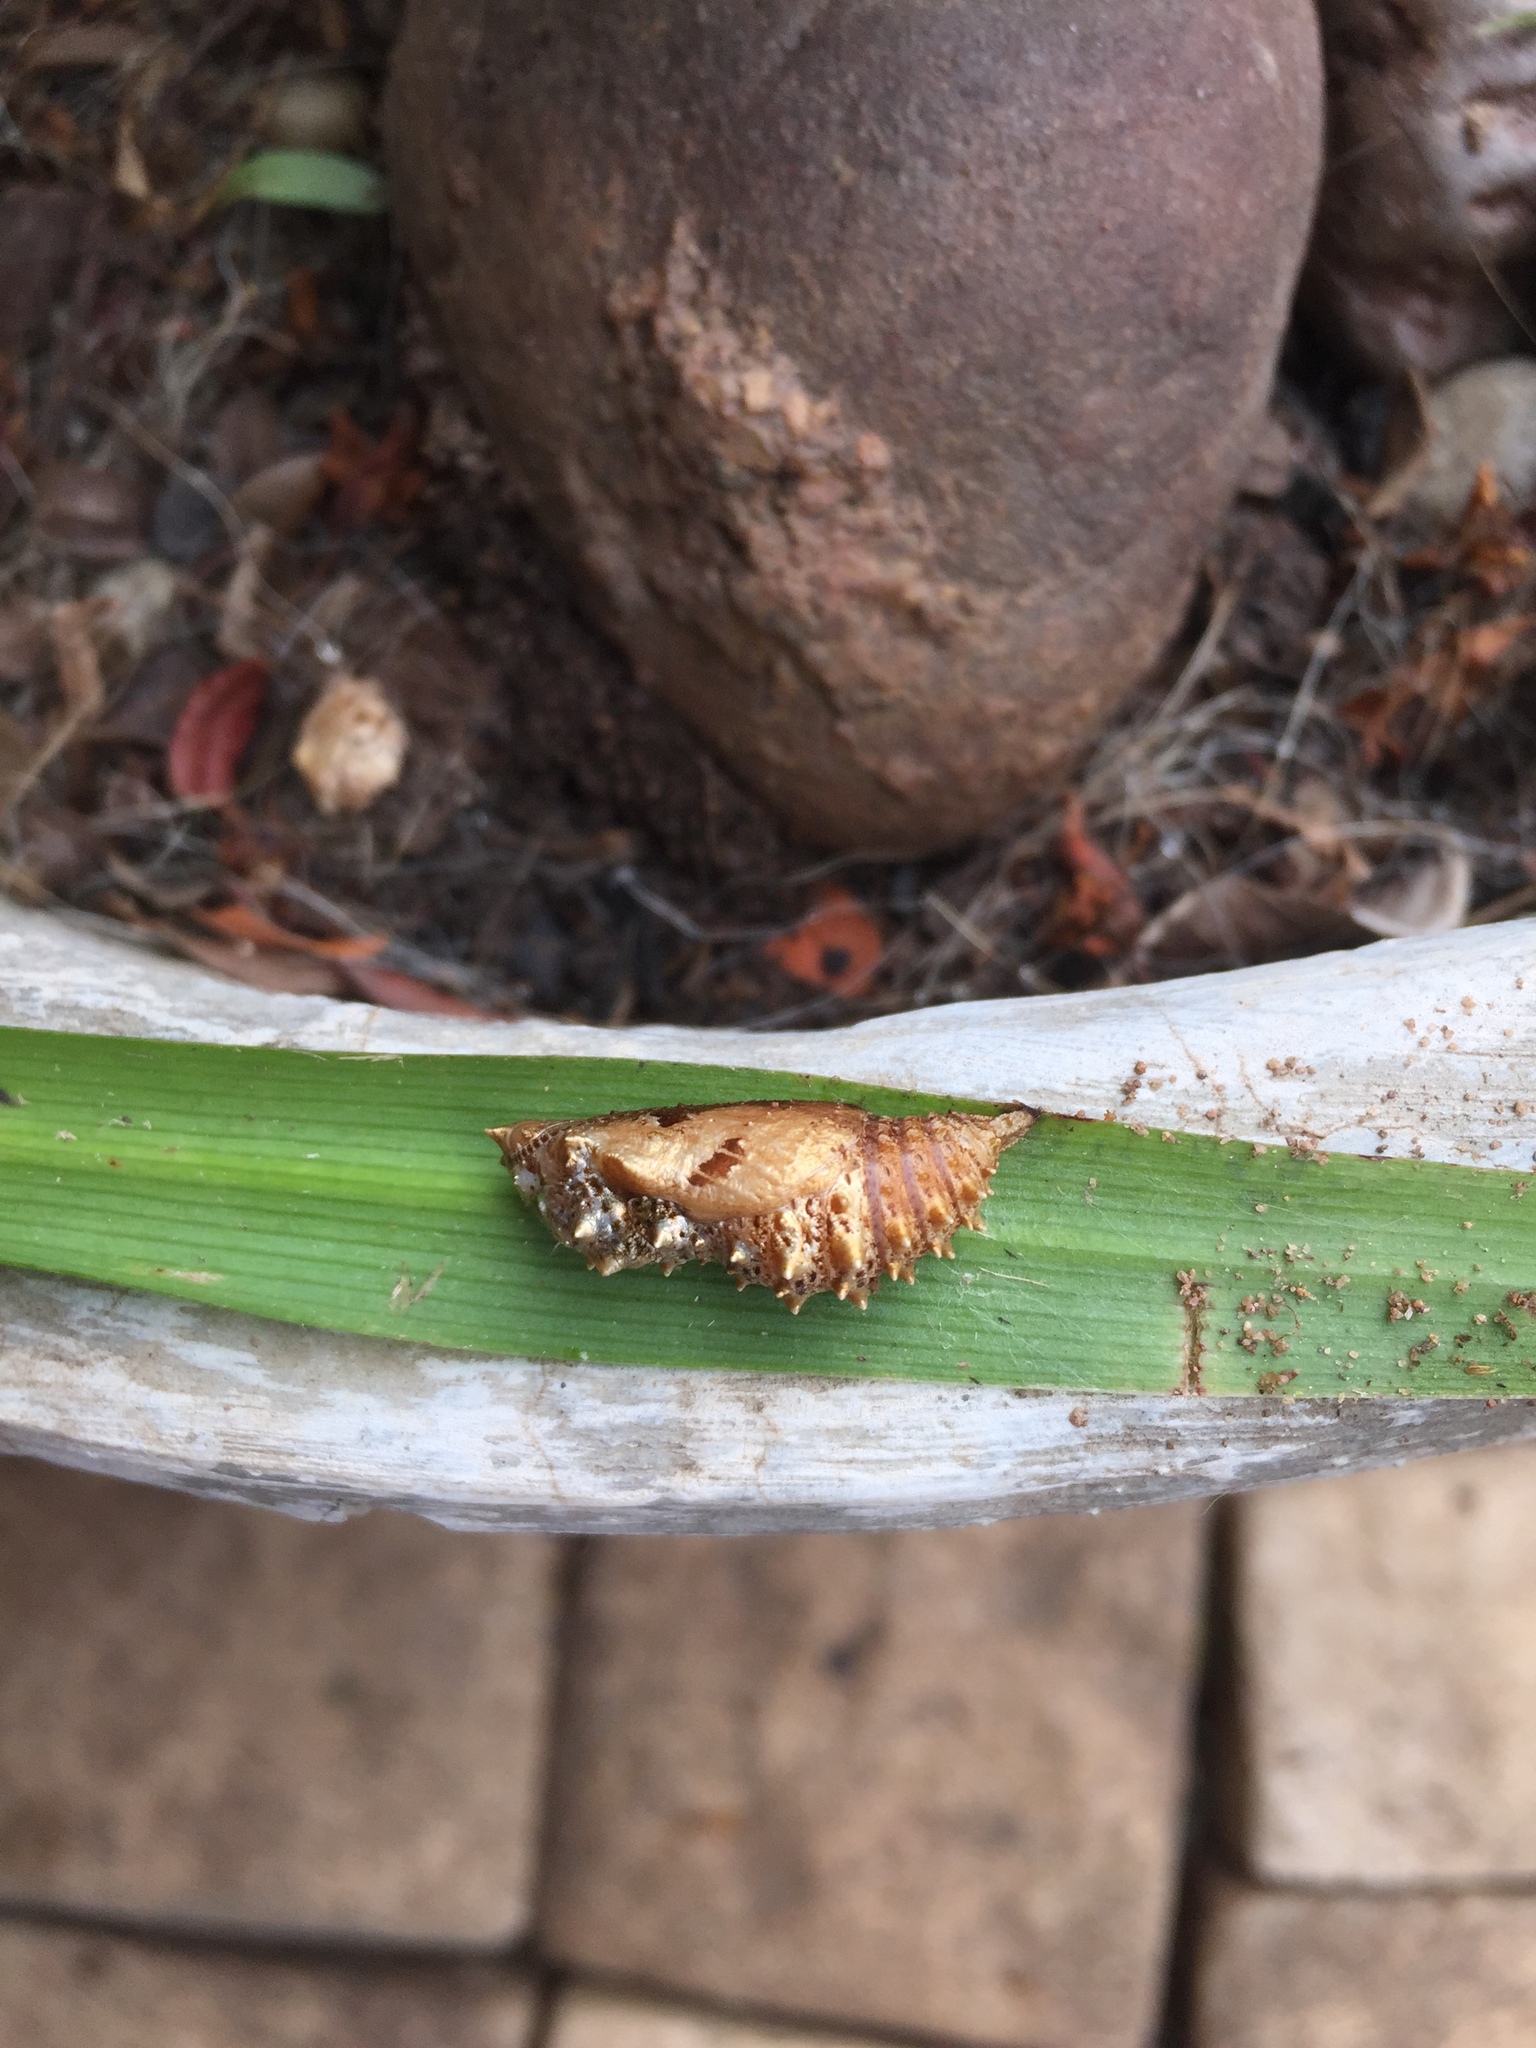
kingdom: Animalia
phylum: Arthropoda
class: Insecta
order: Lepidoptera
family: Nymphalidae
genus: Precis
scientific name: Precis octavia
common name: Gaudy commodore
